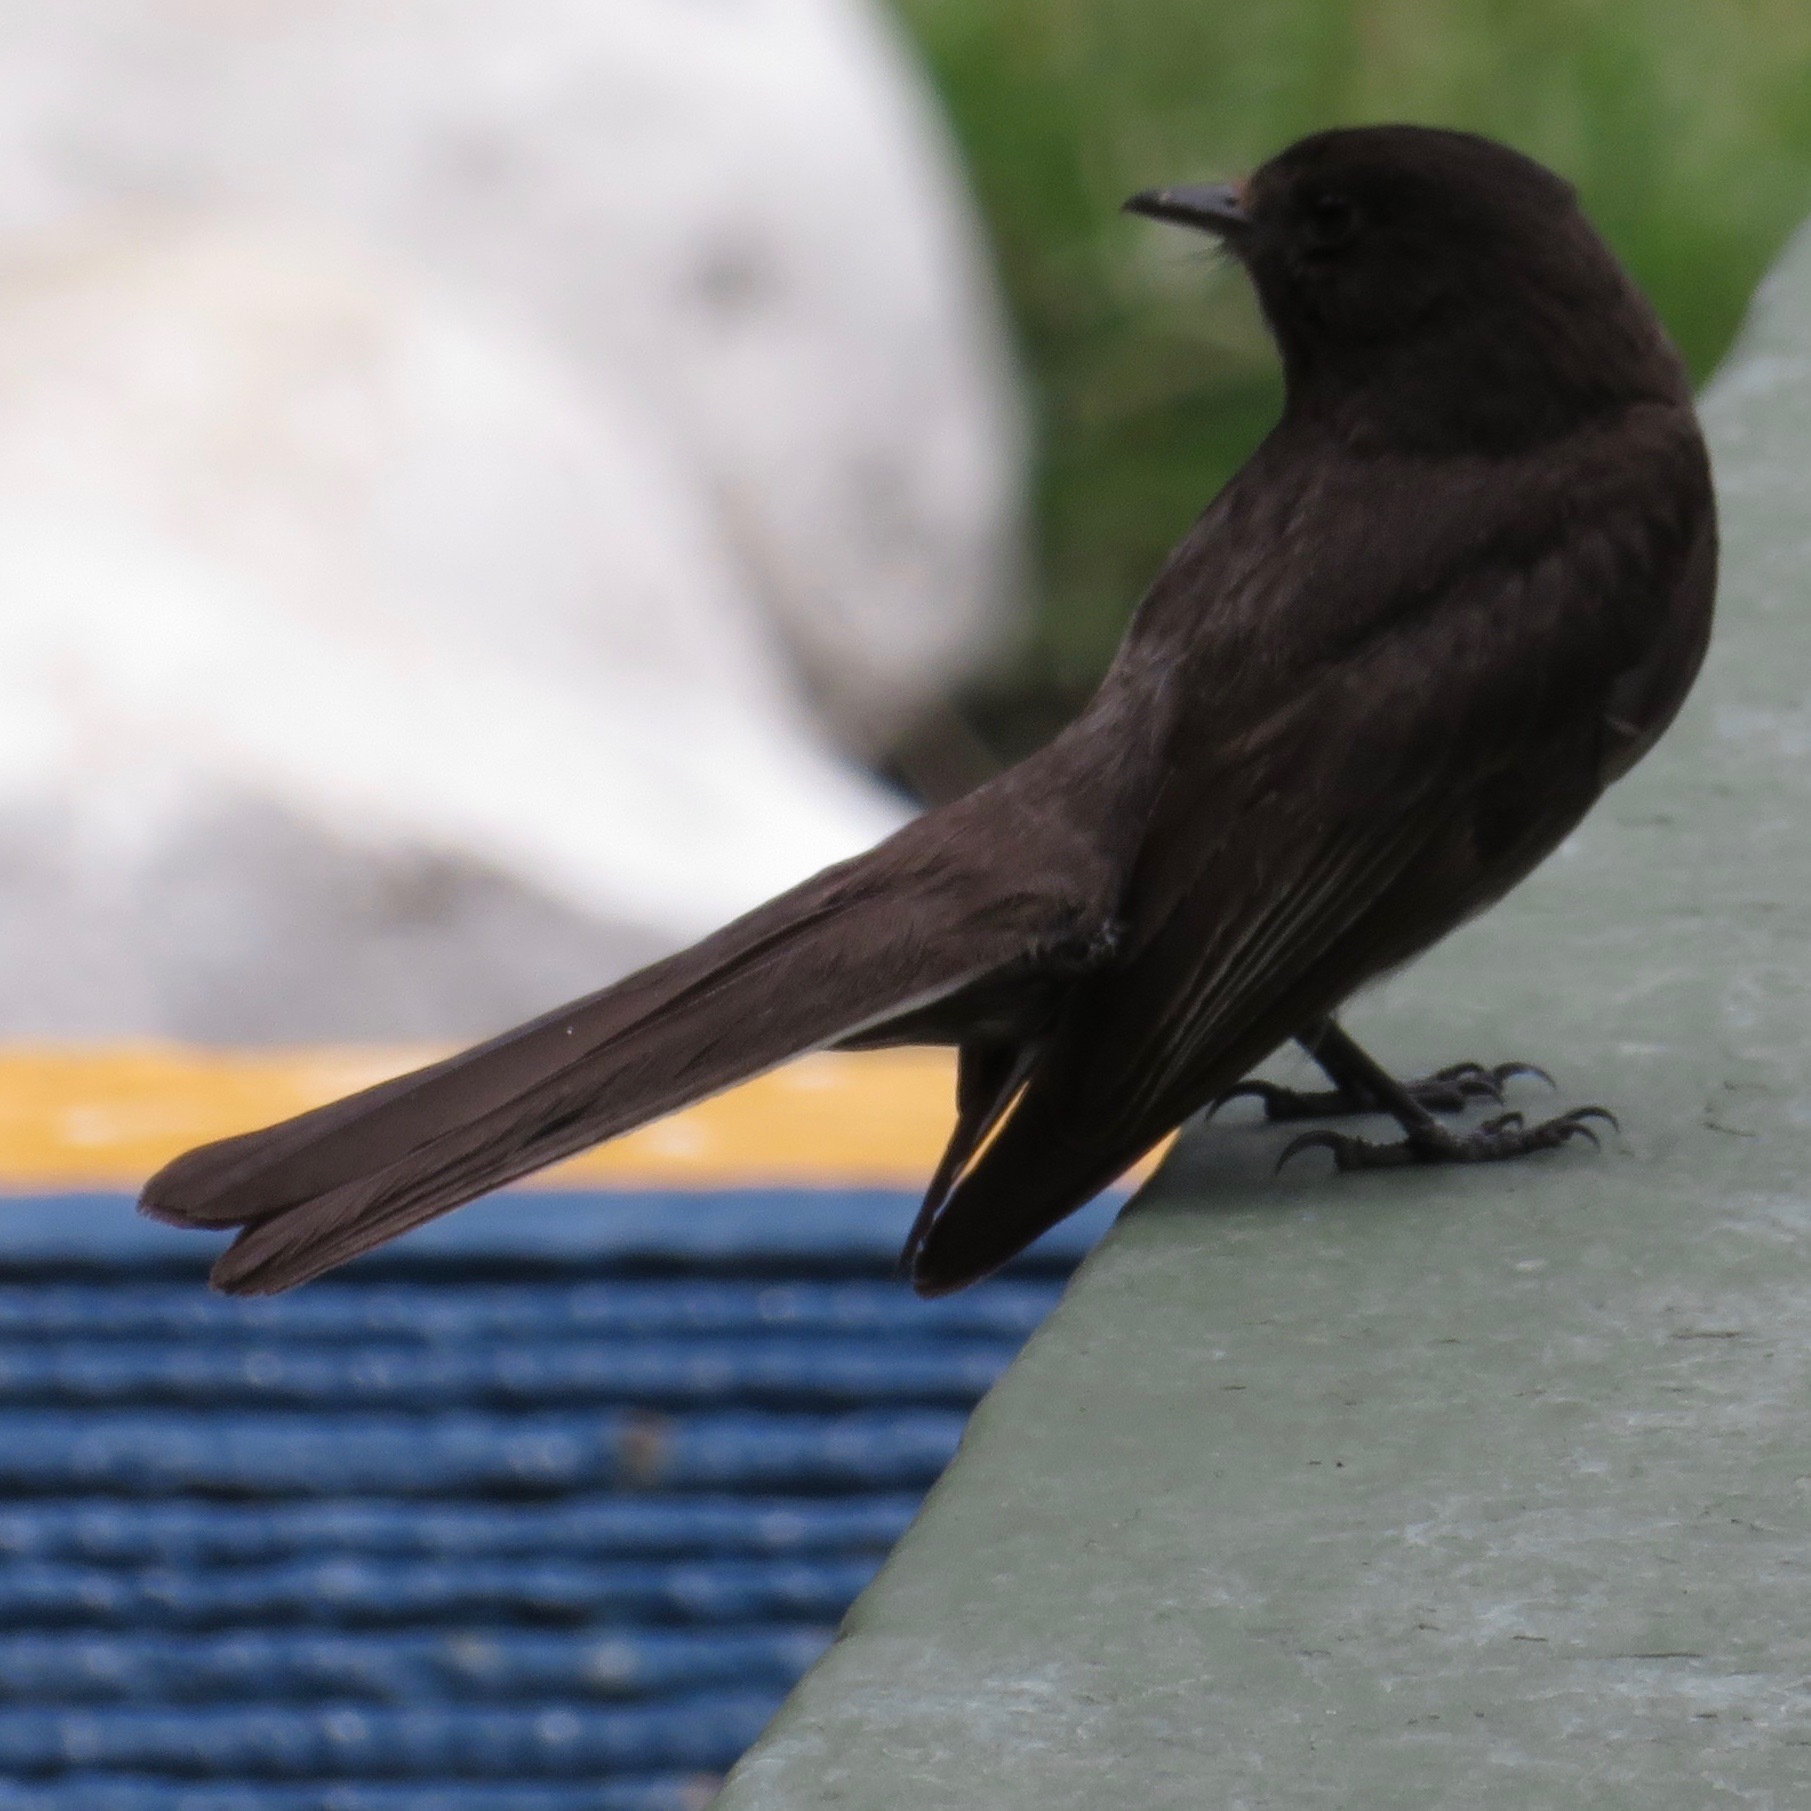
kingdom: Animalia
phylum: Chordata
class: Aves
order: Passeriformes
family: Tyrannidae
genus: Sayornis
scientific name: Sayornis nigricans
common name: Black phoebe
